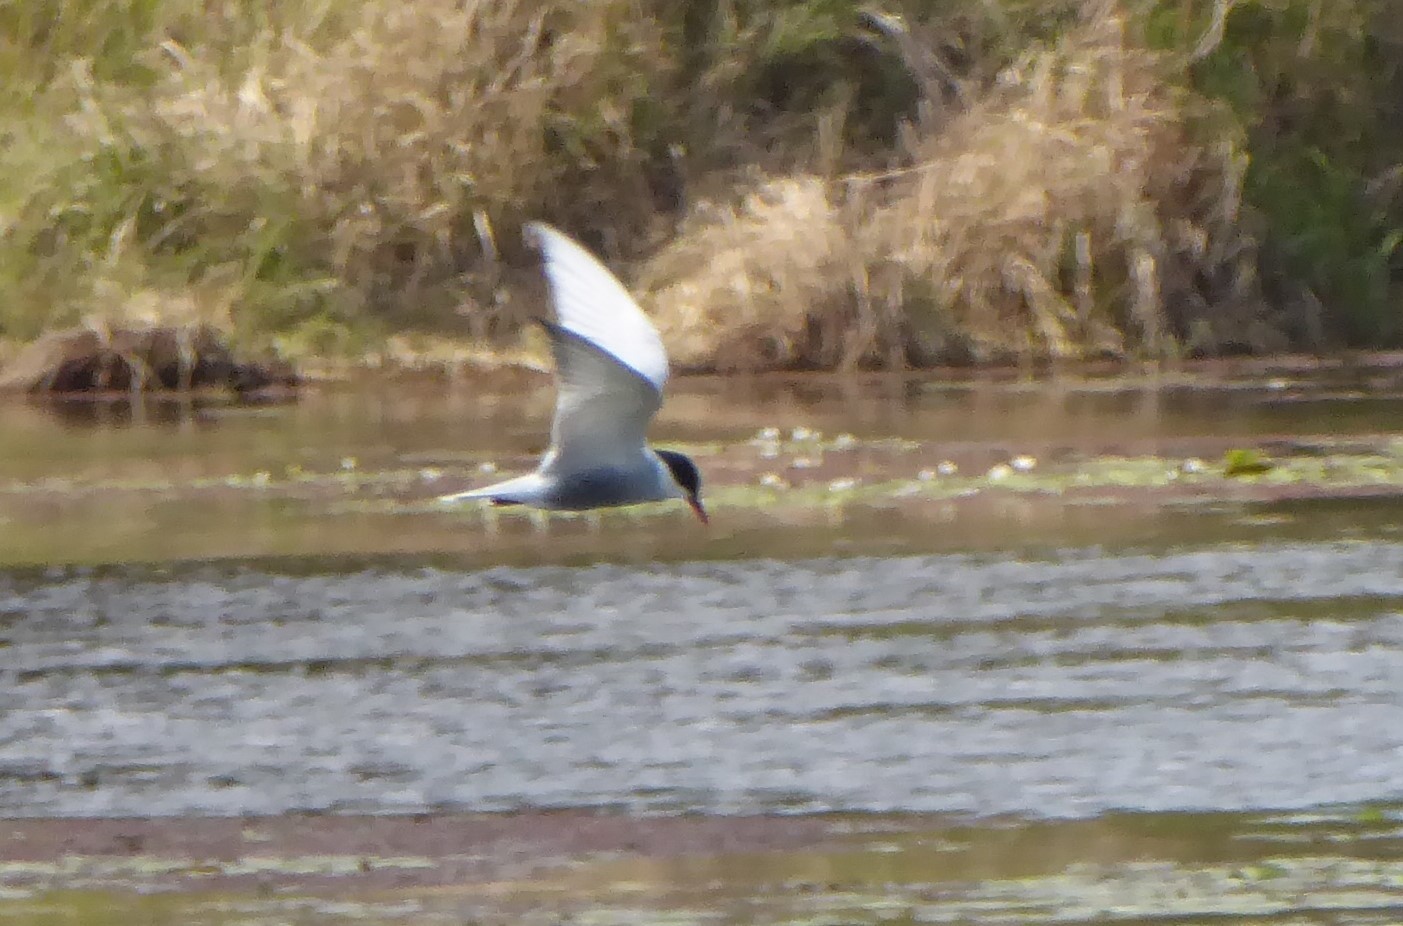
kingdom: Animalia
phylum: Chordata
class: Aves
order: Charadriiformes
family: Laridae
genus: Chlidonias
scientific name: Chlidonias hybrida
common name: Whiskered tern
